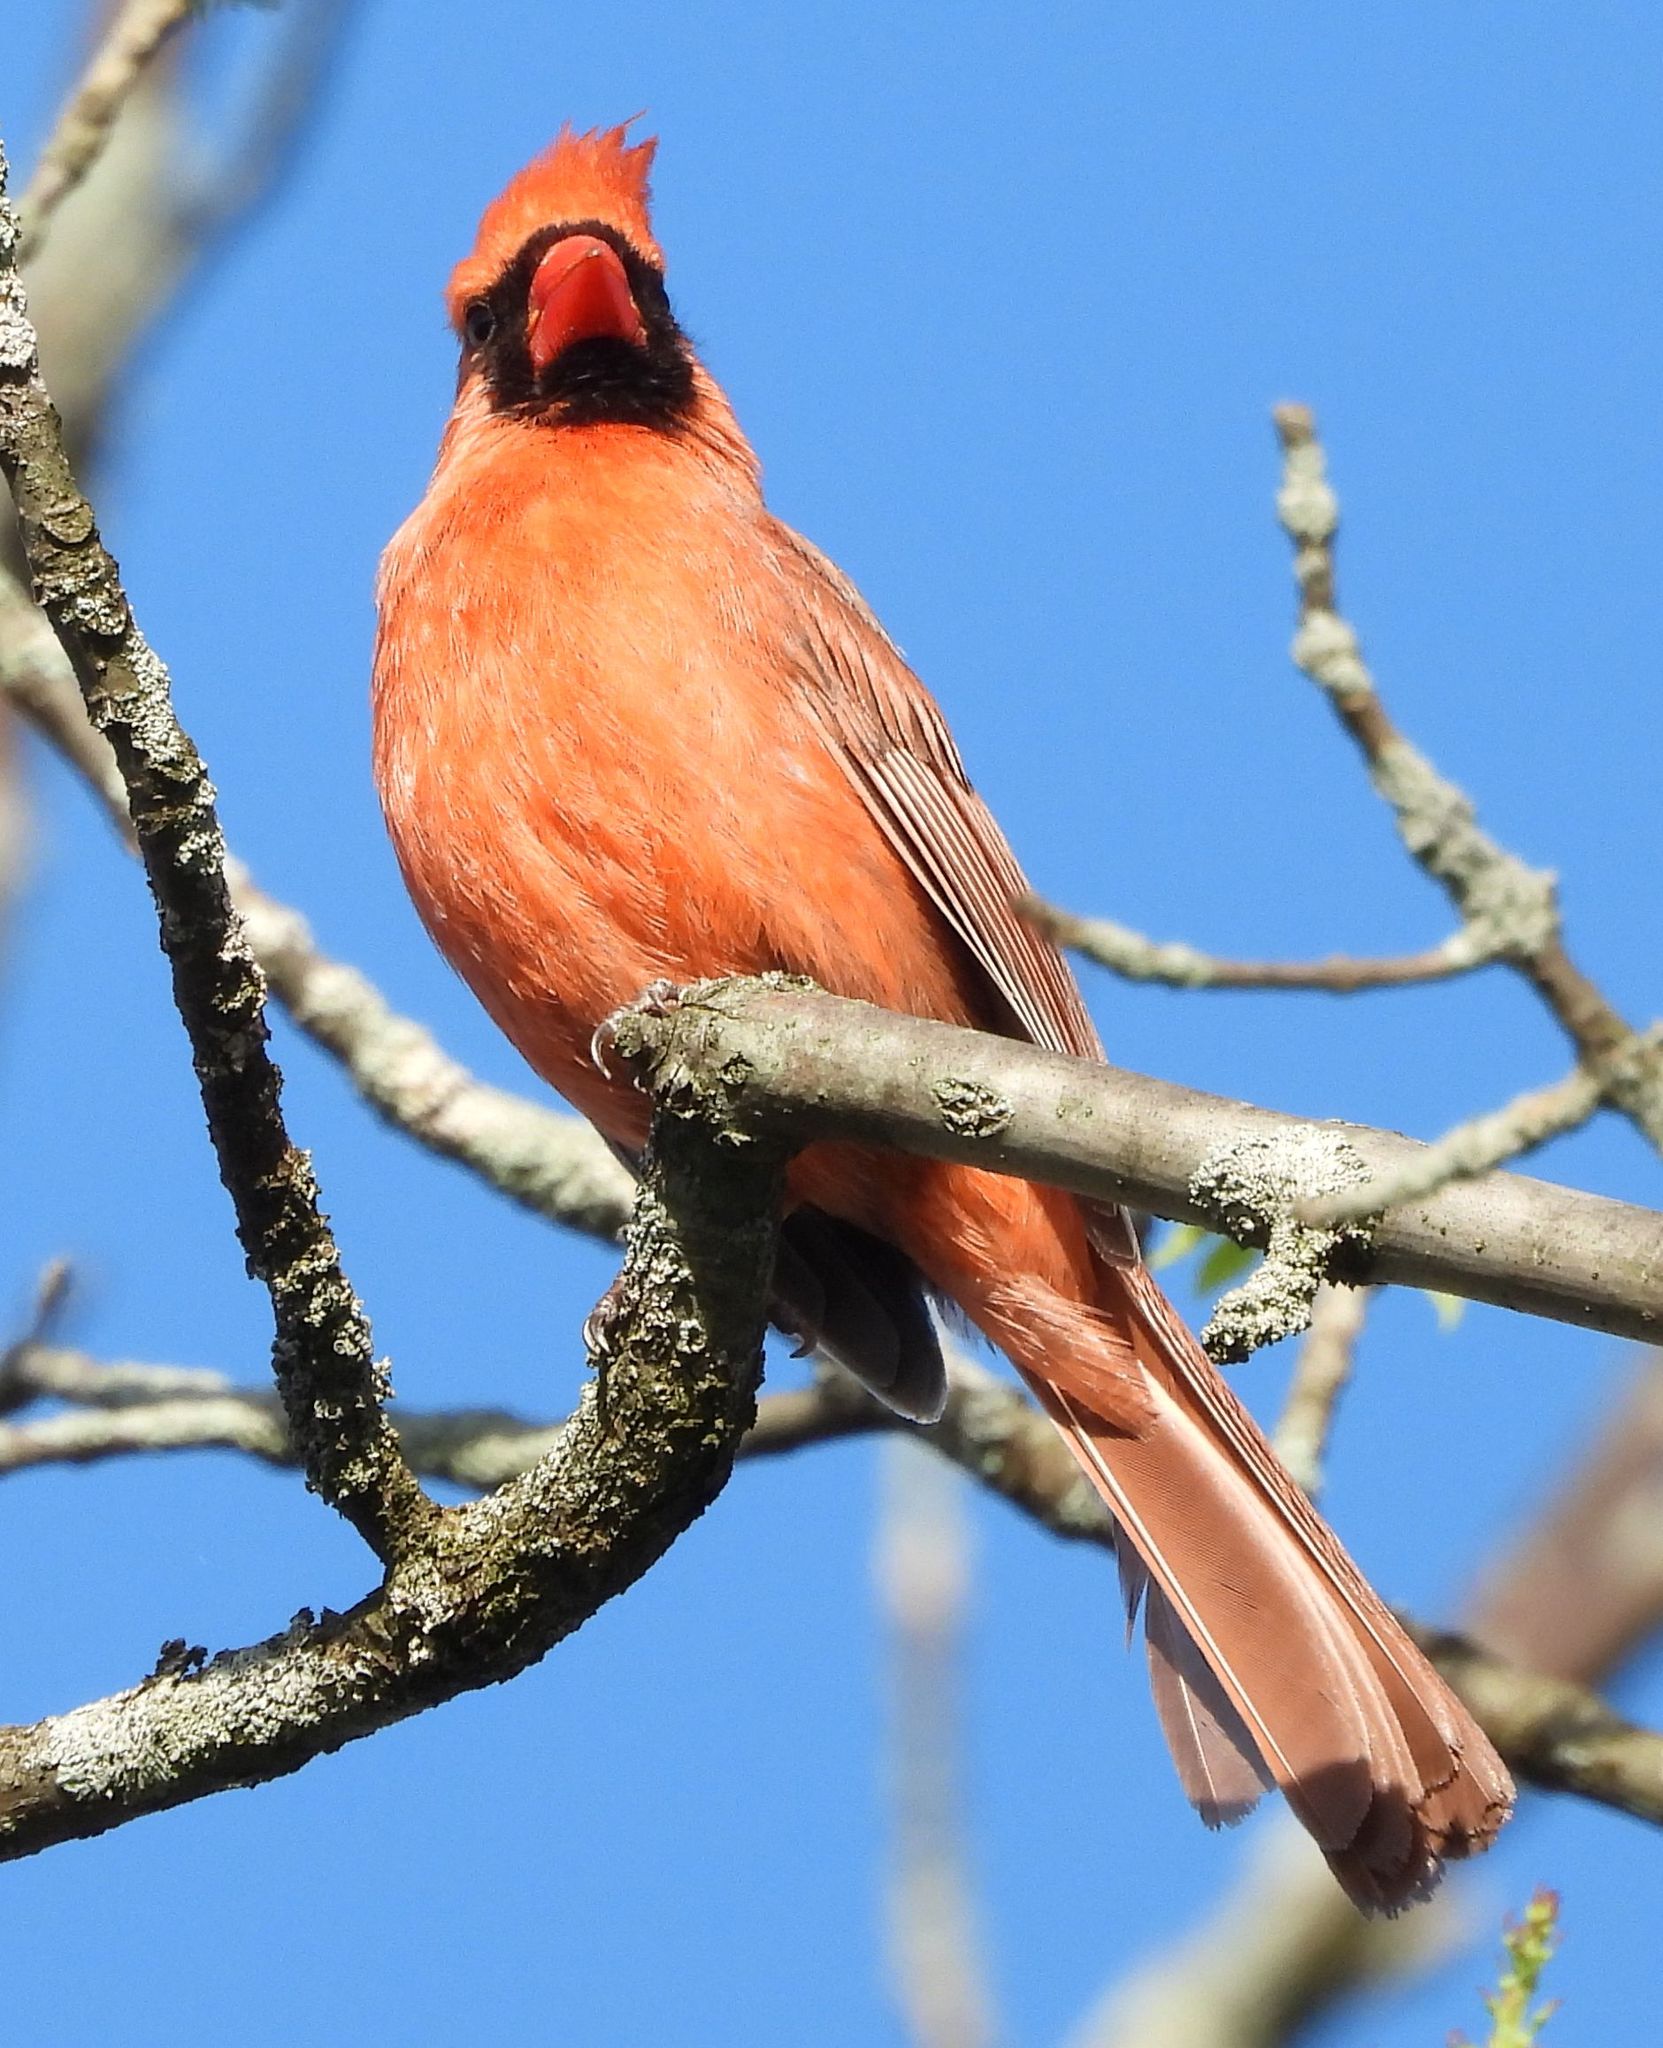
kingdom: Animalia
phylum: Chordata
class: Aves
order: Passeriformes
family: Cardinalidae
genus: Cardinalis
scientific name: Cardinalis cardinalis
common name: Northern cardinal
